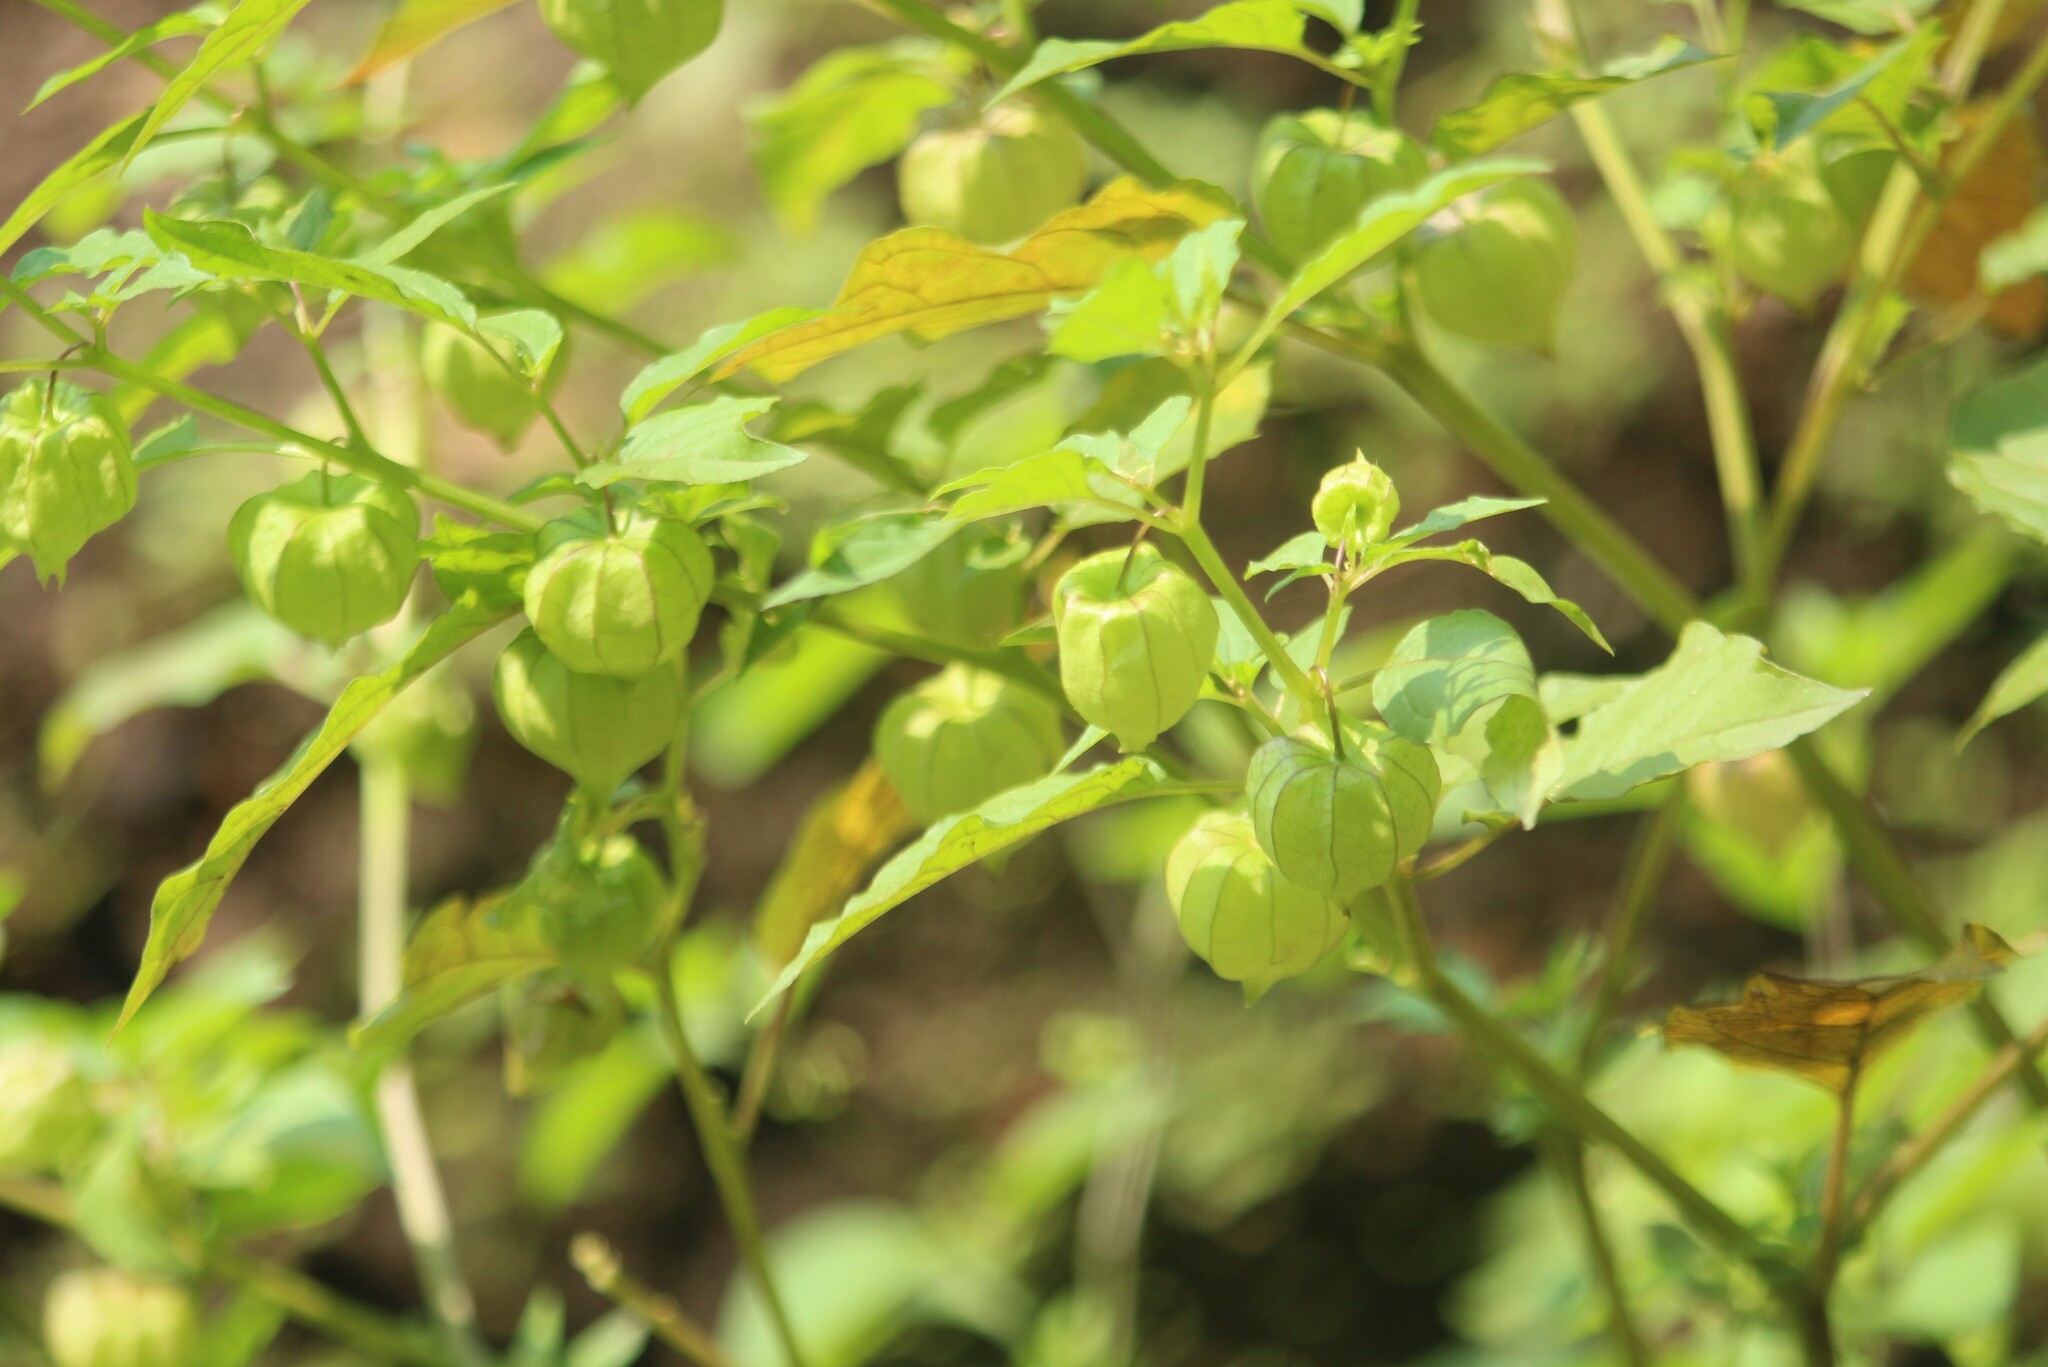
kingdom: Plantae
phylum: Tracheophyta
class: Magnoliopsida
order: Solanales
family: Solanaceae
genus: Physalis
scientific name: Physalis angulata
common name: Angular winter-cherry
